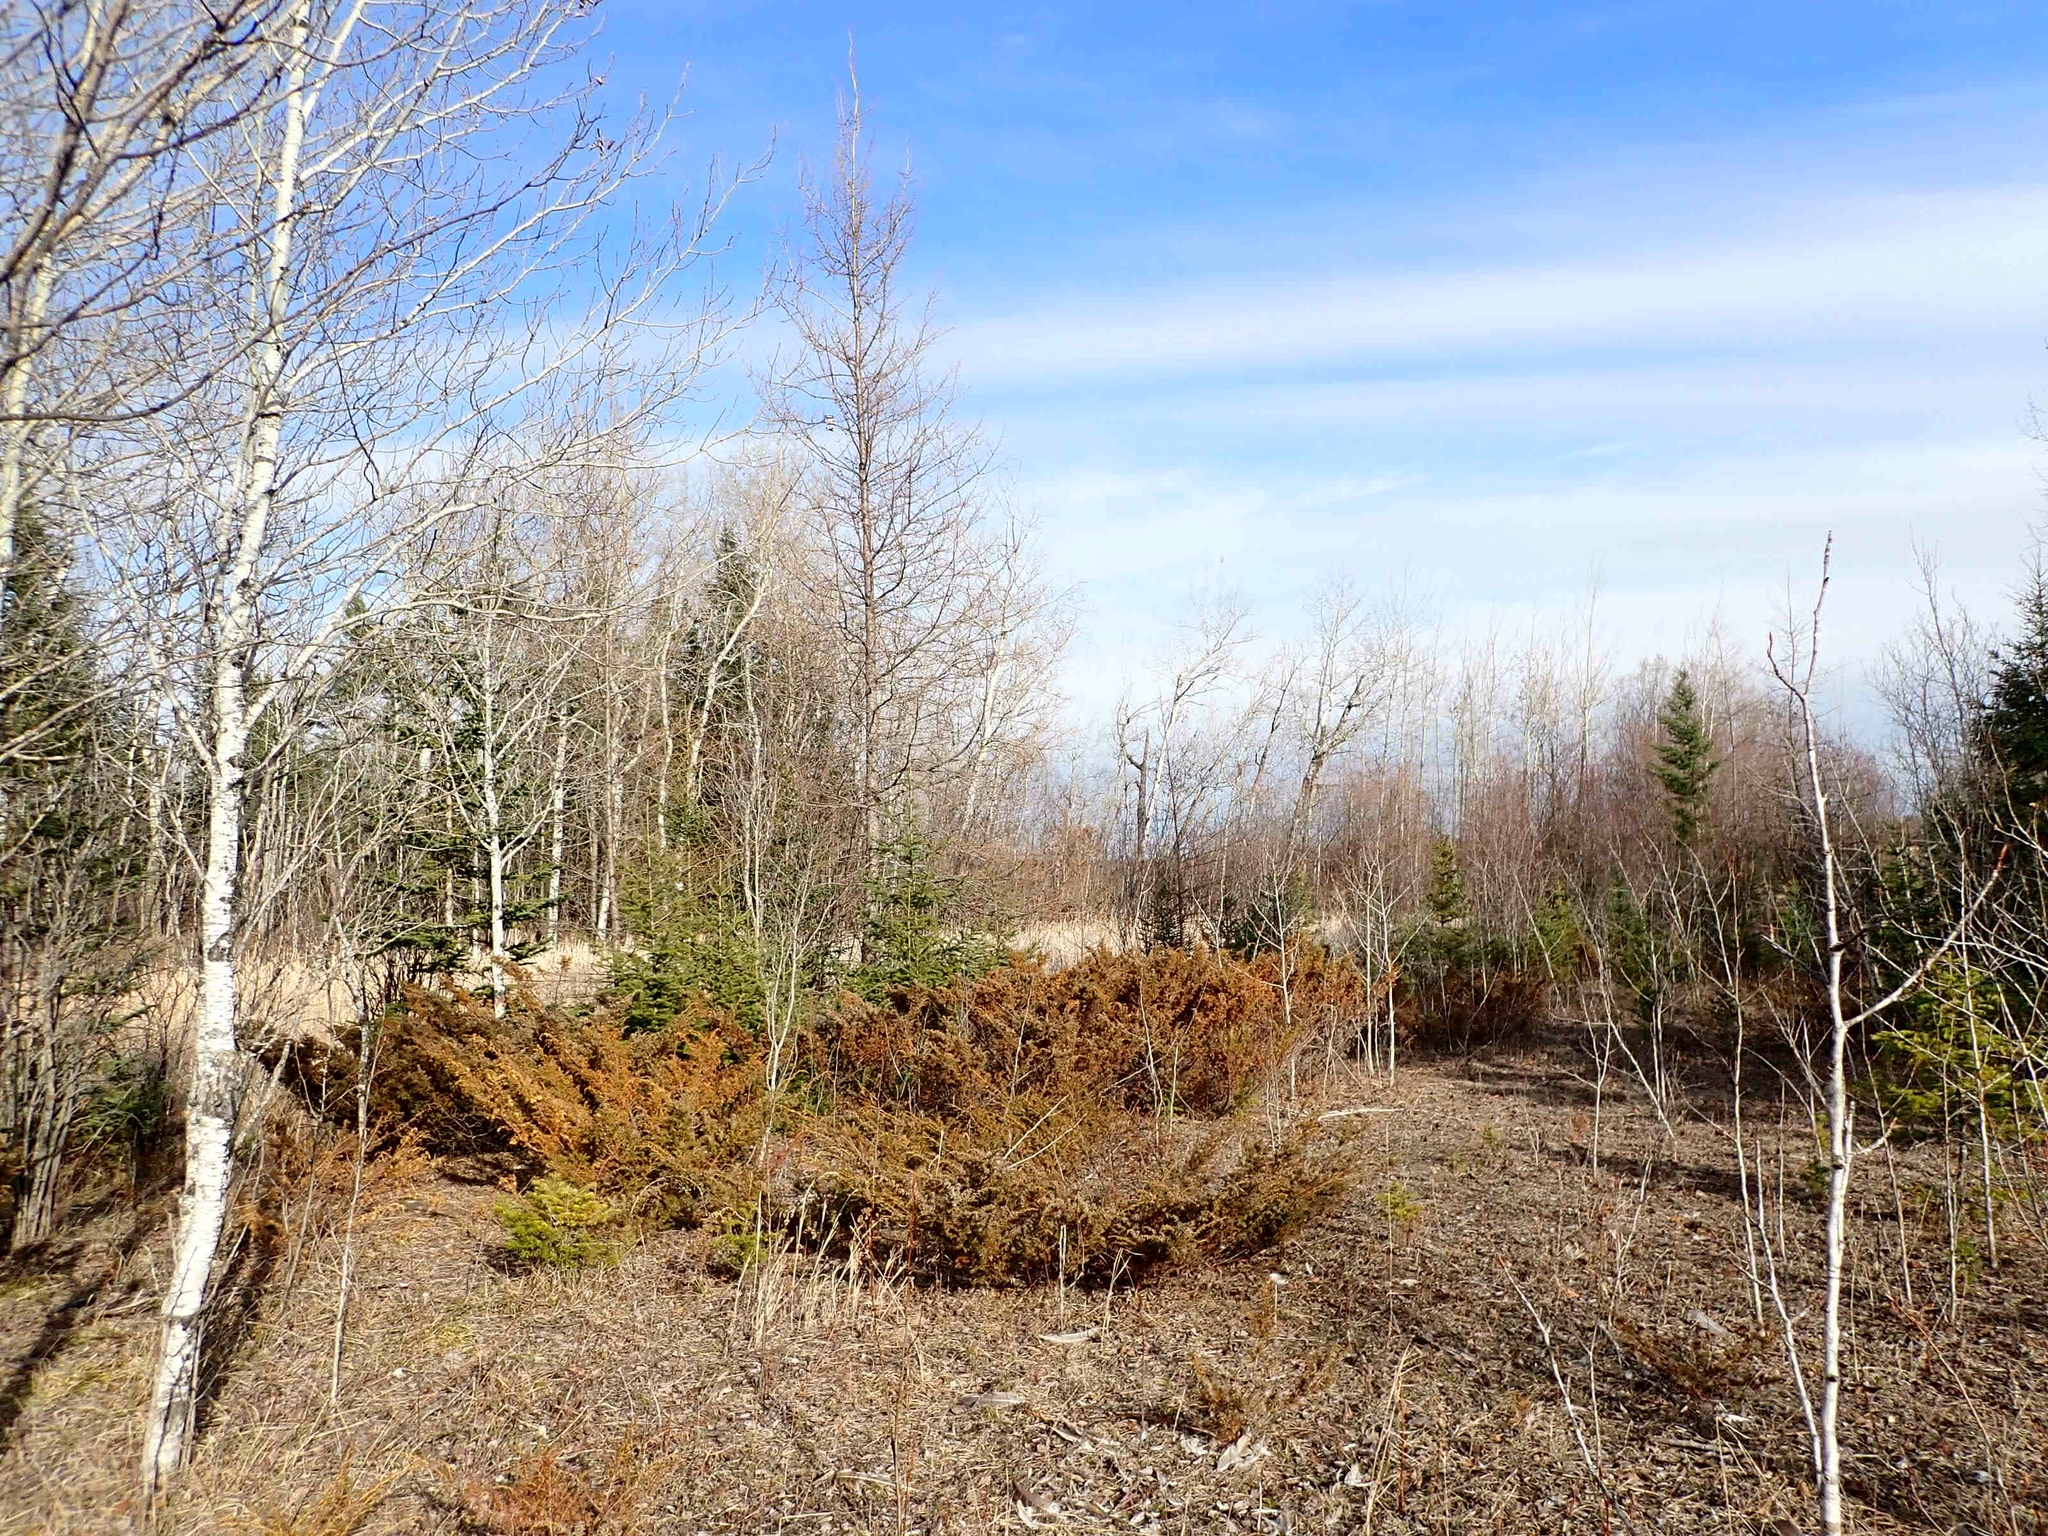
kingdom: Plantae
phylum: Tracheophyta
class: Pinopsida
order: Pinales
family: Cupressaceae
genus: Juniperus
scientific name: Juniperus communis
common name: Common juniper
